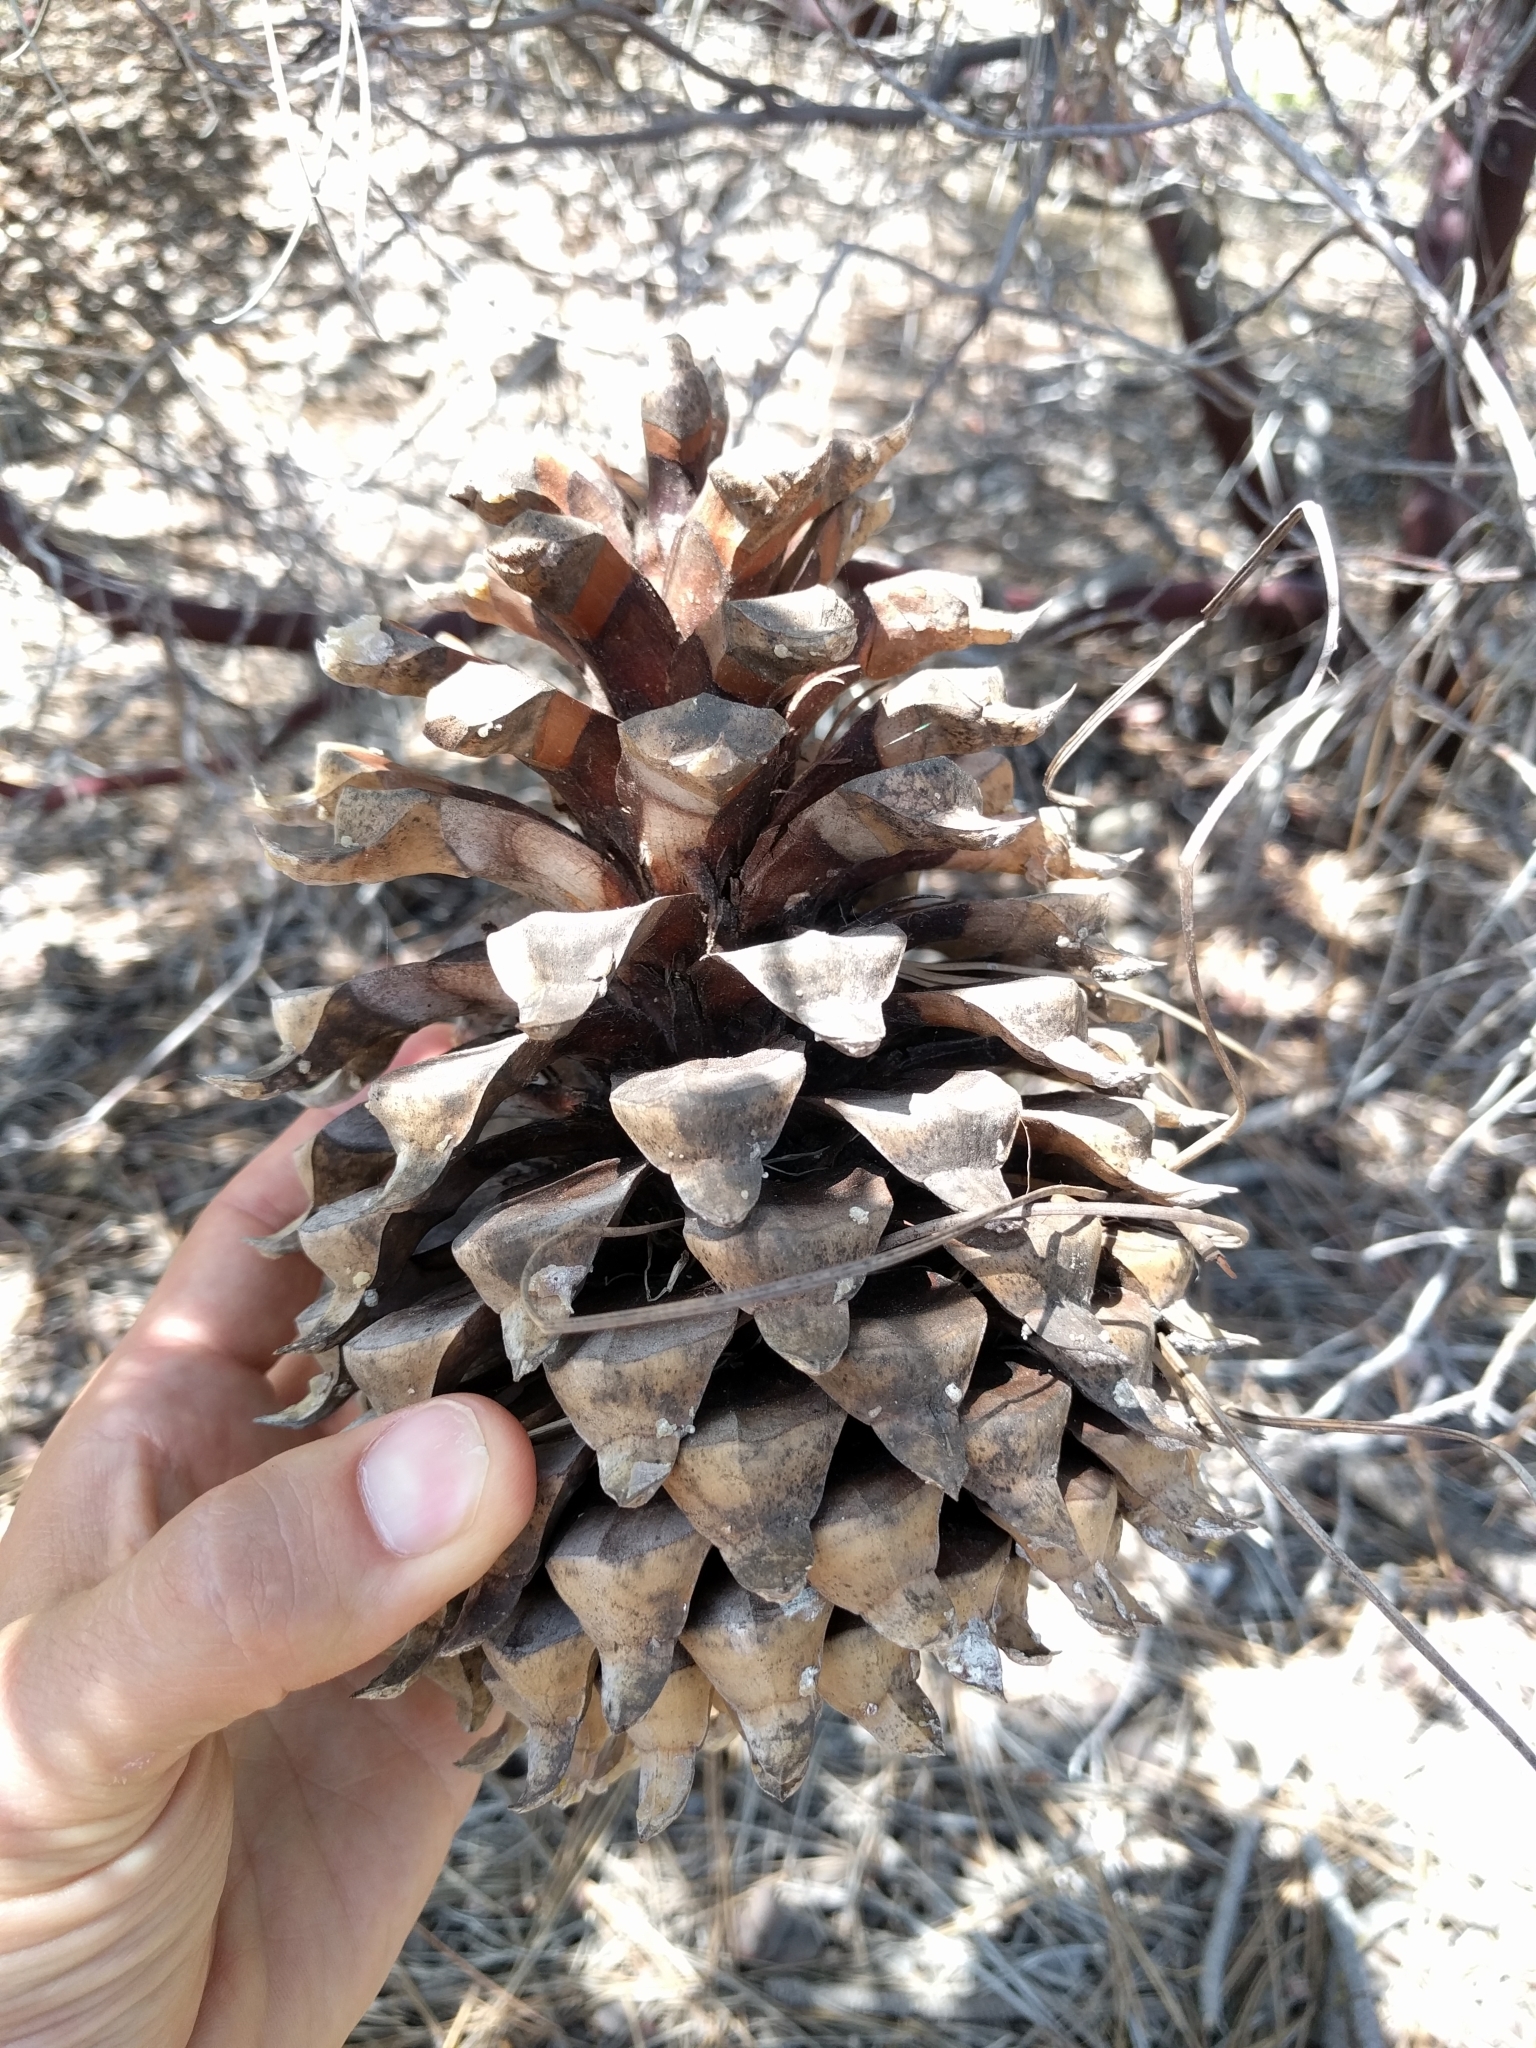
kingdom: Plantae
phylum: Tracheophyta
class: Pinopsida
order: Pinales
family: Pinaceae
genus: Pinus
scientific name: Pinus coulteri
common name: Coulter pine
